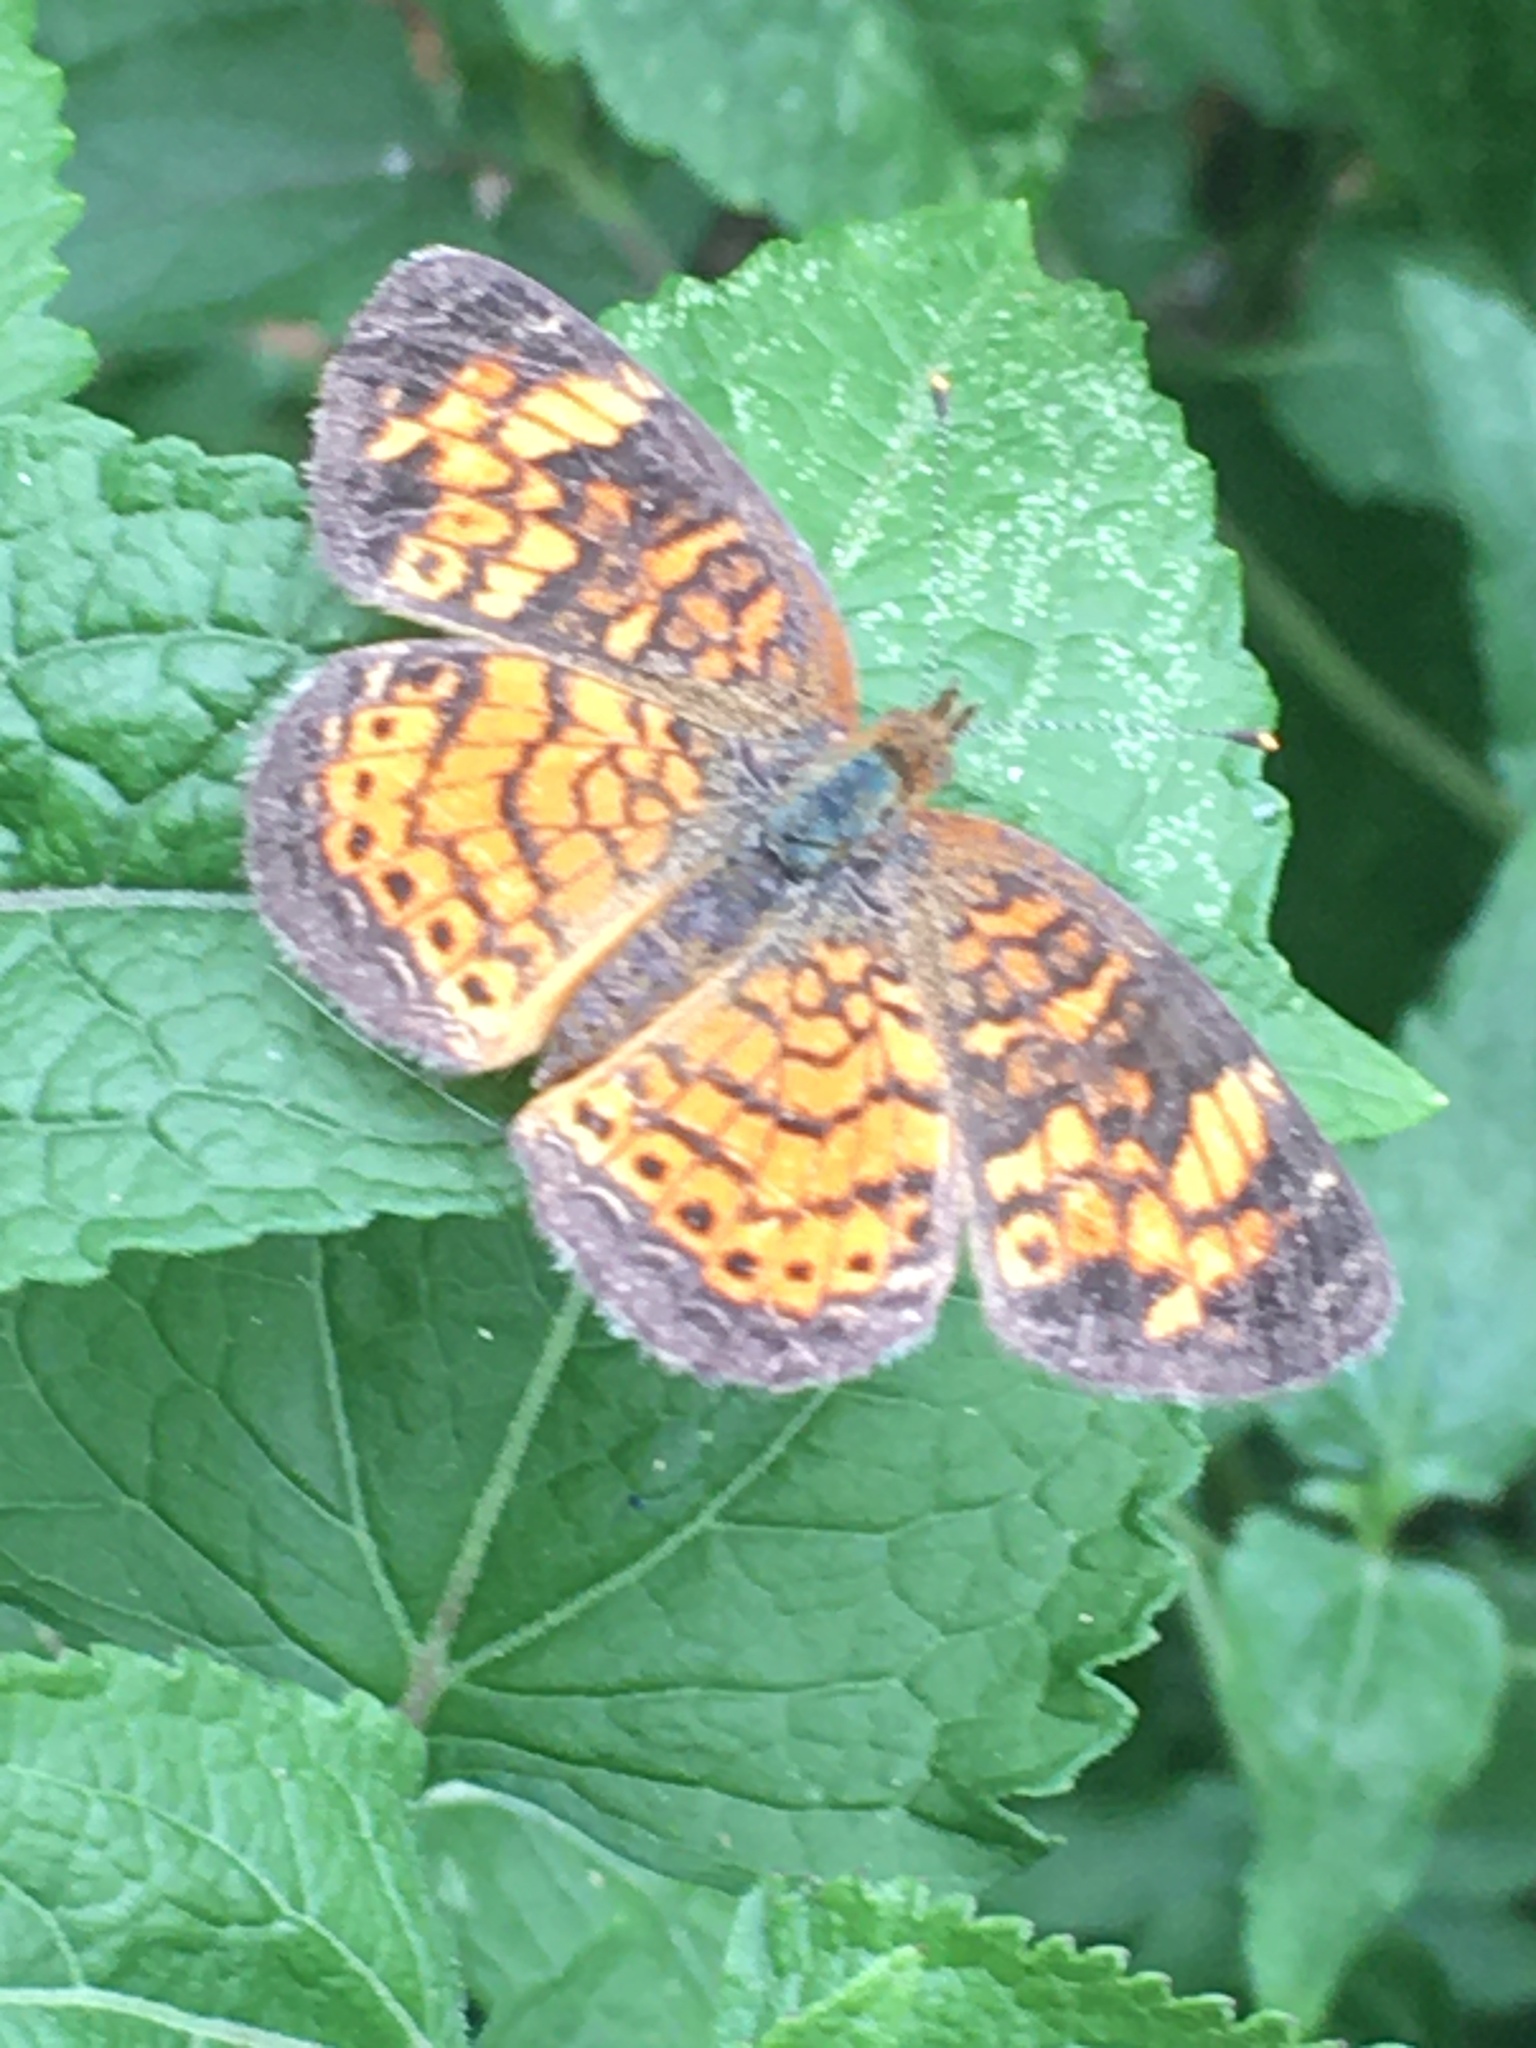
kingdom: Animalia
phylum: Arthropoda
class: Insecta
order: Lepidoptera
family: Nymphalidae
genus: Phyciodes
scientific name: Phyciodes tharos
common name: Pearl crescent
